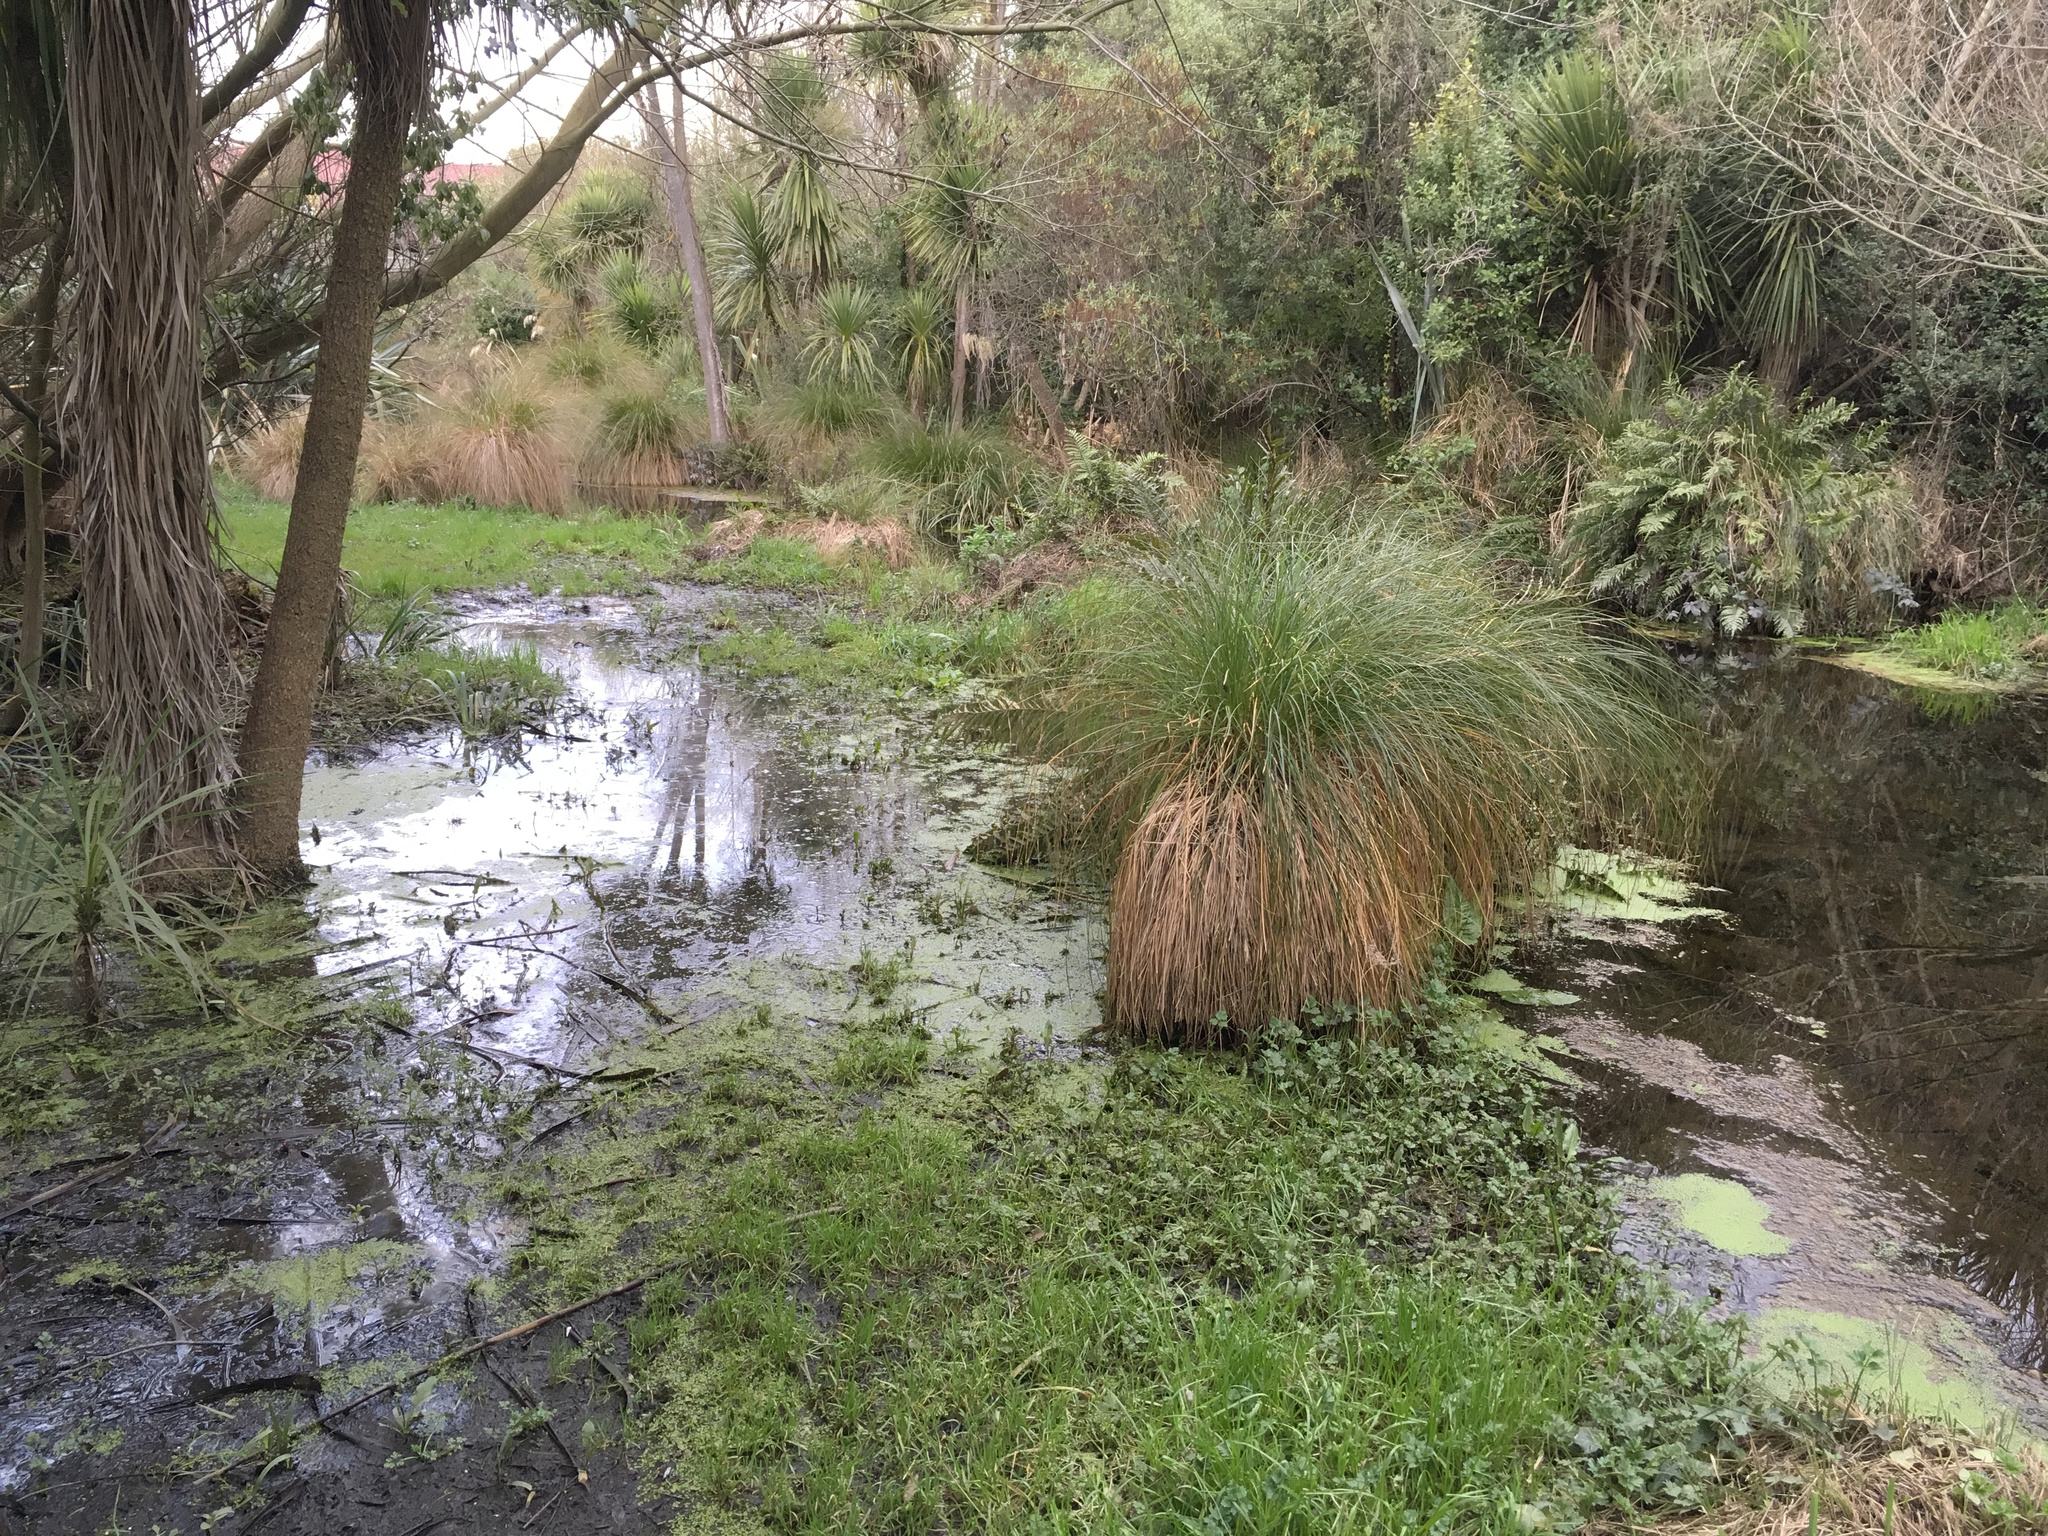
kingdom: Plantae
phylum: Tracheophyta
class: Liliopsida
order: Poales
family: Cyperaceae
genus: Carex
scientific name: Carex secta
